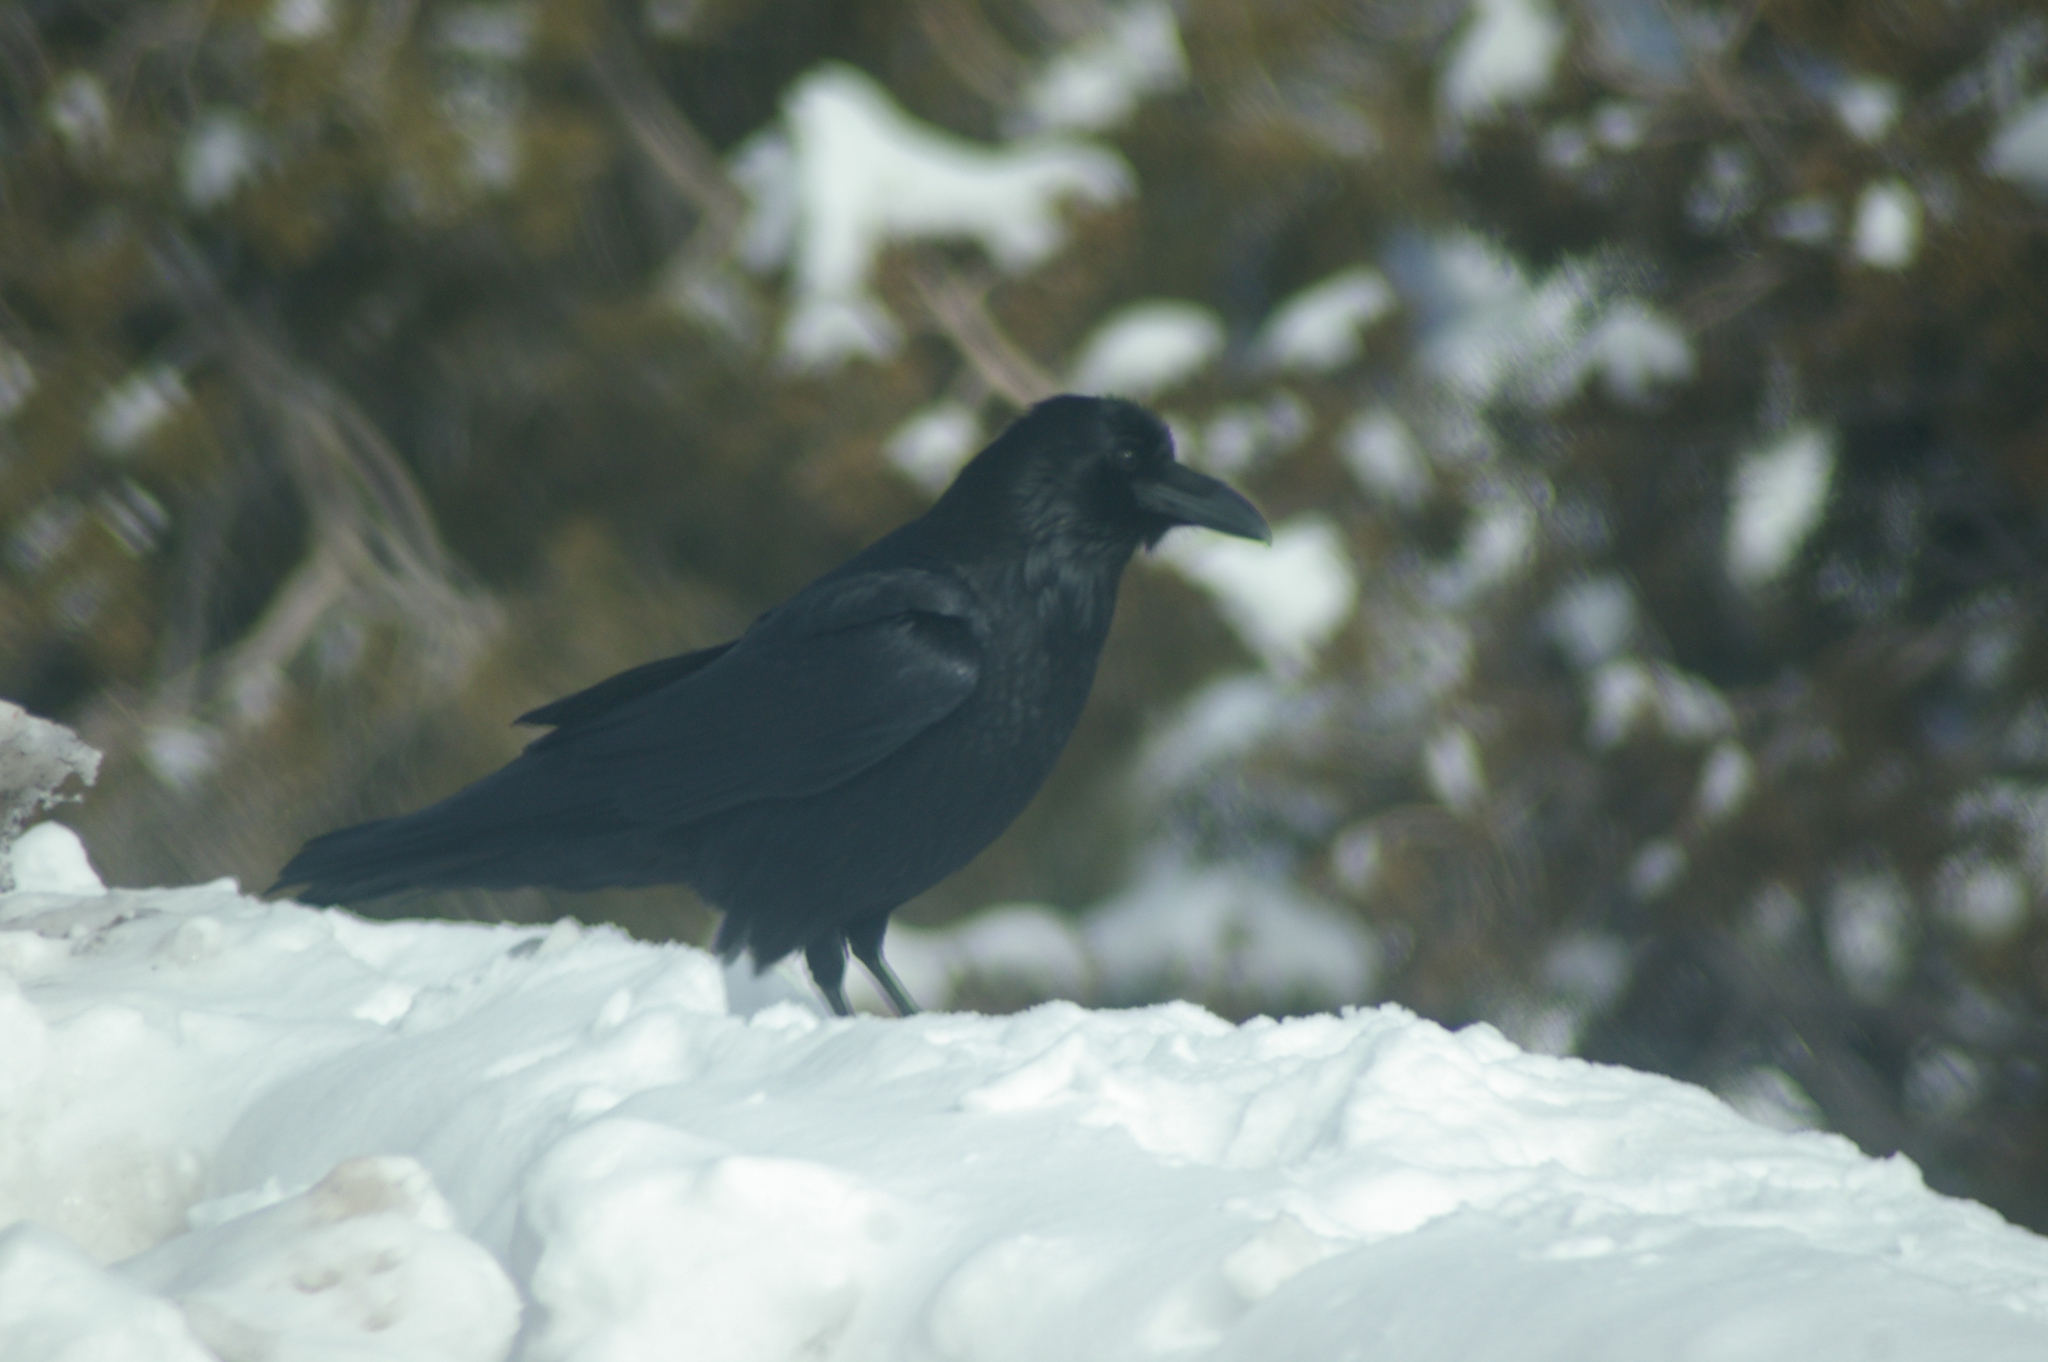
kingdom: Animalia
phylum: Chordata
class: Aves
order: Passeriformes
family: Corvidae
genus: Corvus
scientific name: Corvus corax
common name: Common raven
